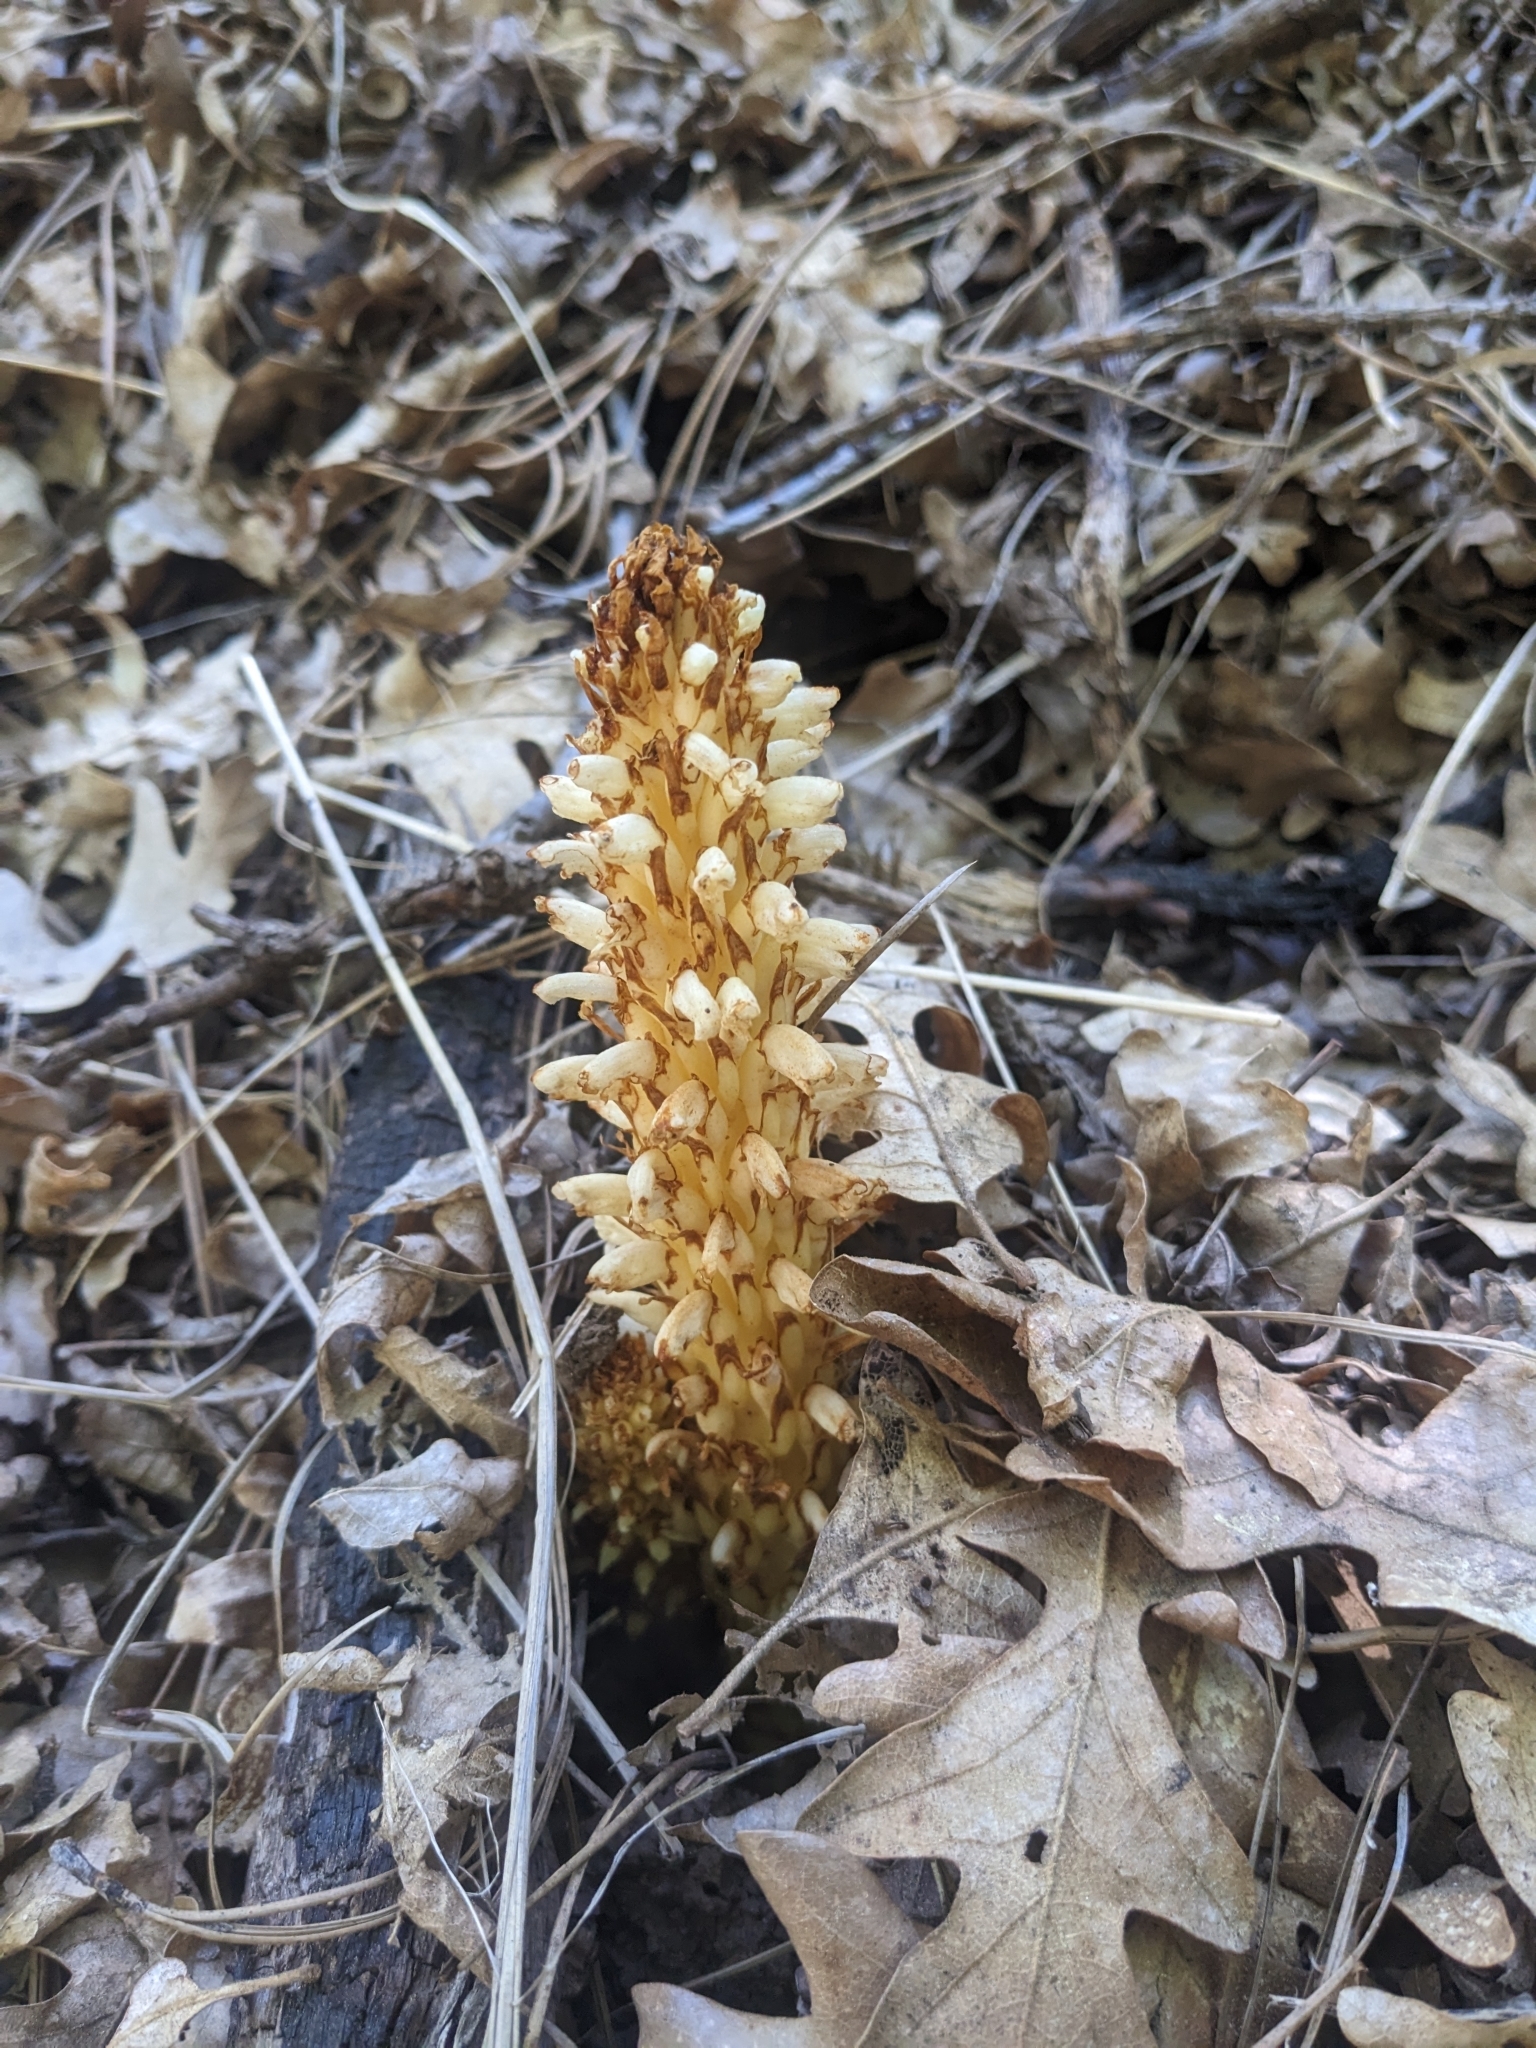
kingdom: Plantae
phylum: Tracheophyta
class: Magnoliopsida
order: Lamiales
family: Orobanchaceae
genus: Conopholis
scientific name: Conopholis alpina
